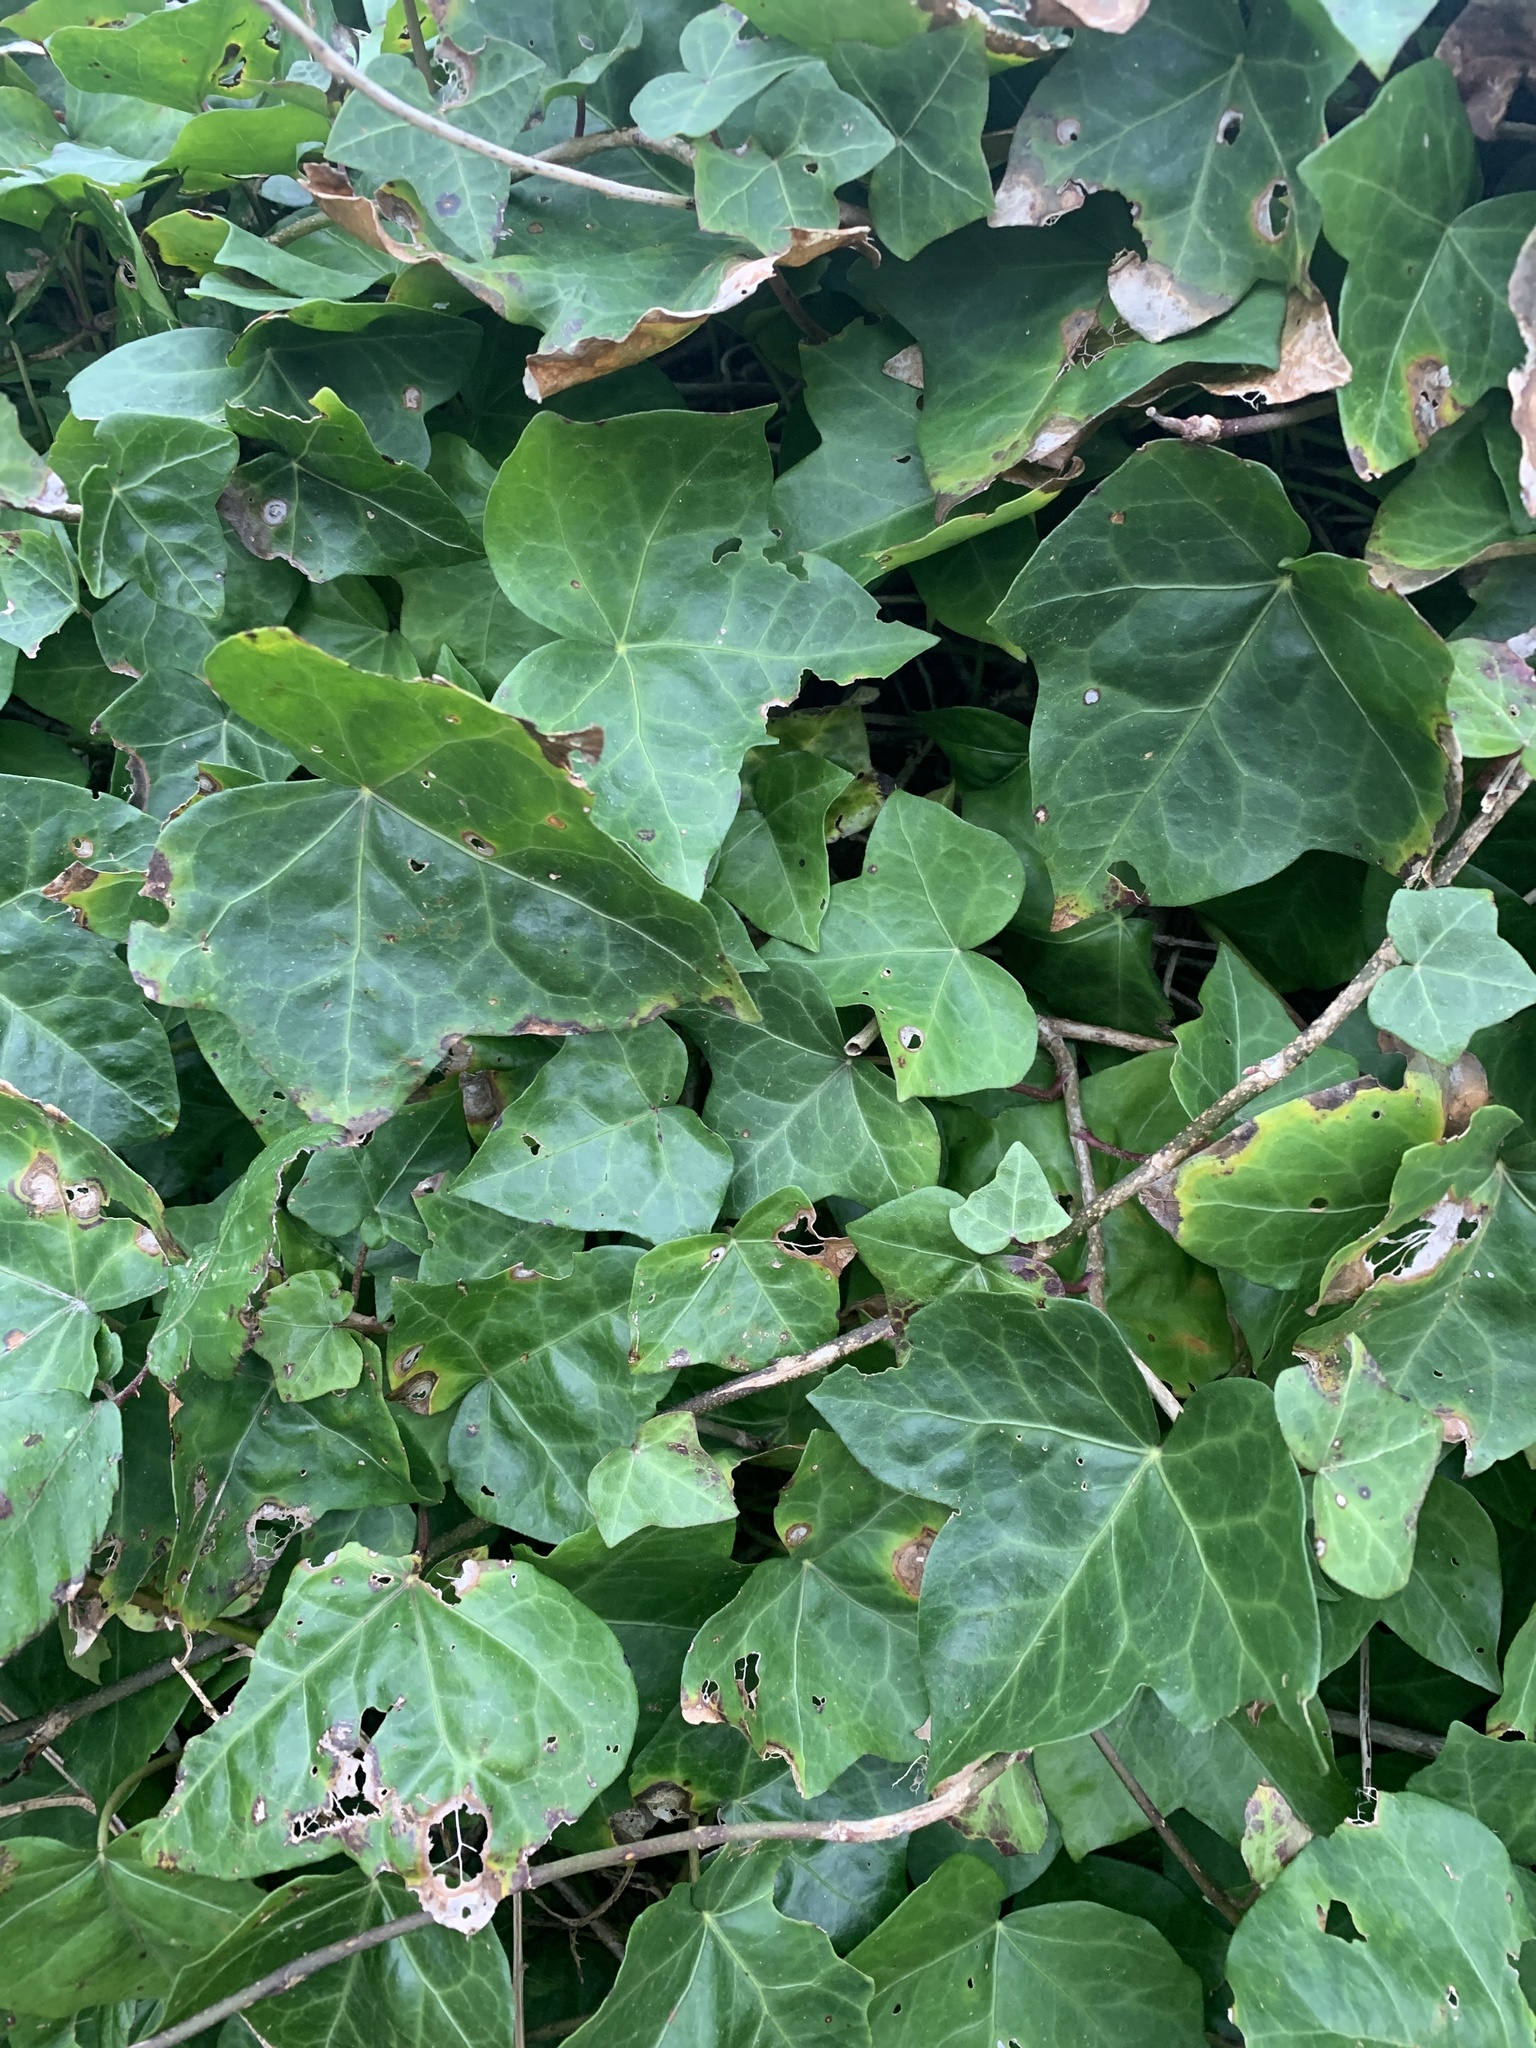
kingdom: Plantae
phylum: Tracheophyta
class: Magnoliopsida
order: Apiales
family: Araliaceae
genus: Hedera
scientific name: Hedera helix
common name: Ivy
